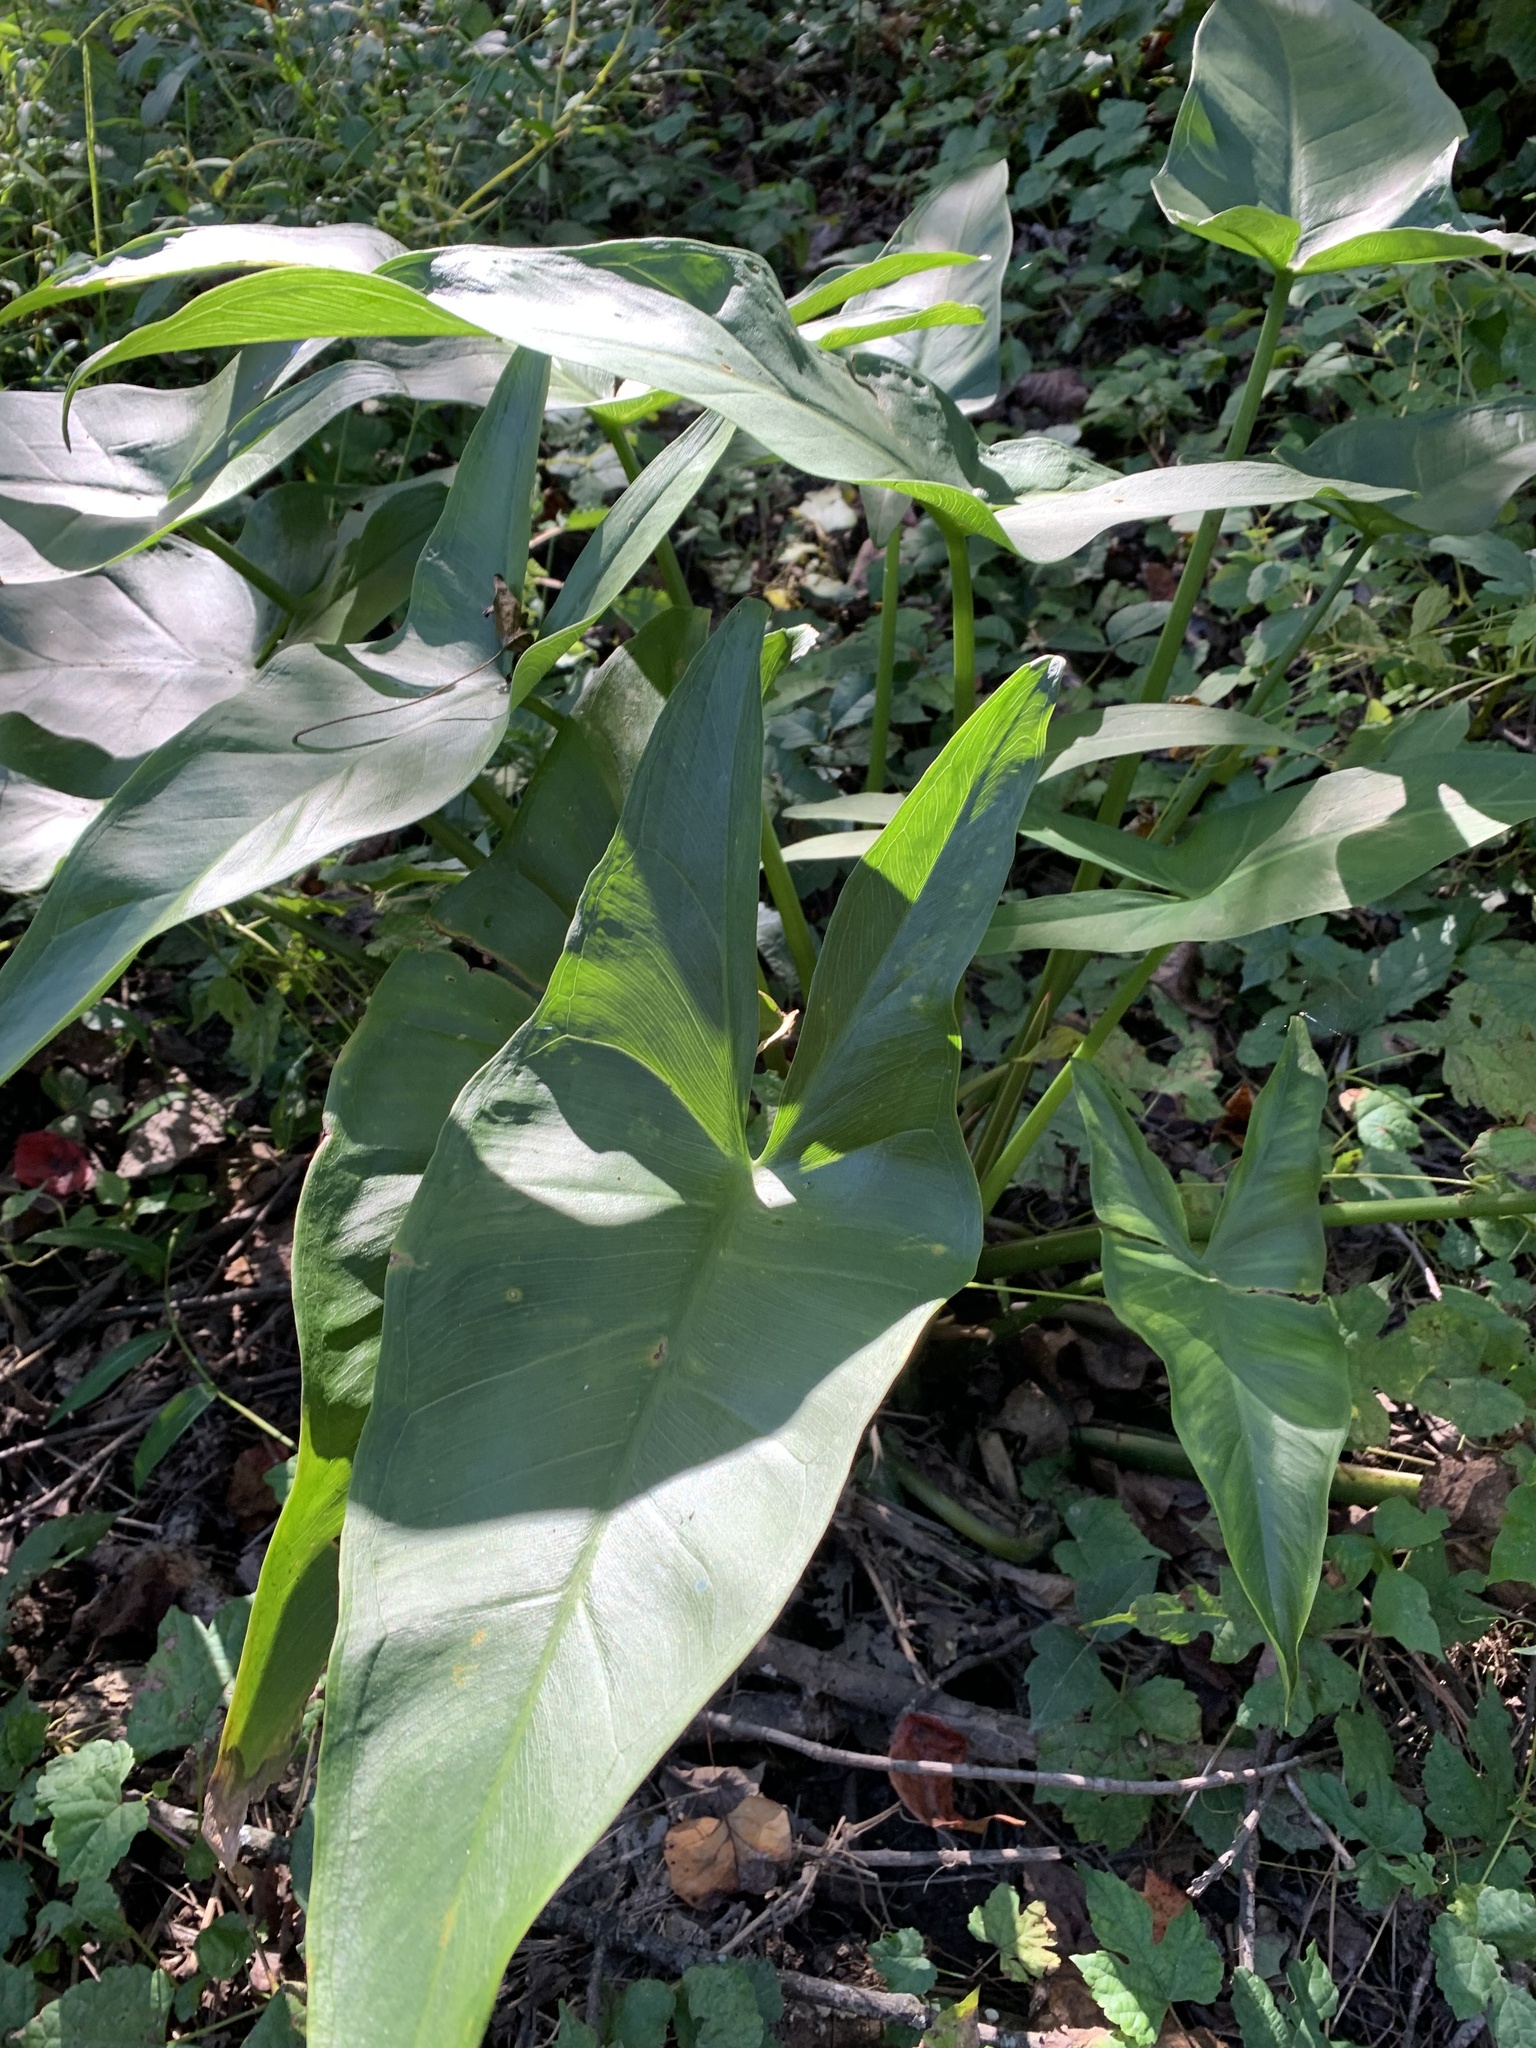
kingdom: Plantae
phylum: Tracheophyta
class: Liliopsida
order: Alismatales
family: Araceae
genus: Peltandra
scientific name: Peltandra virginica
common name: Arrow arum
